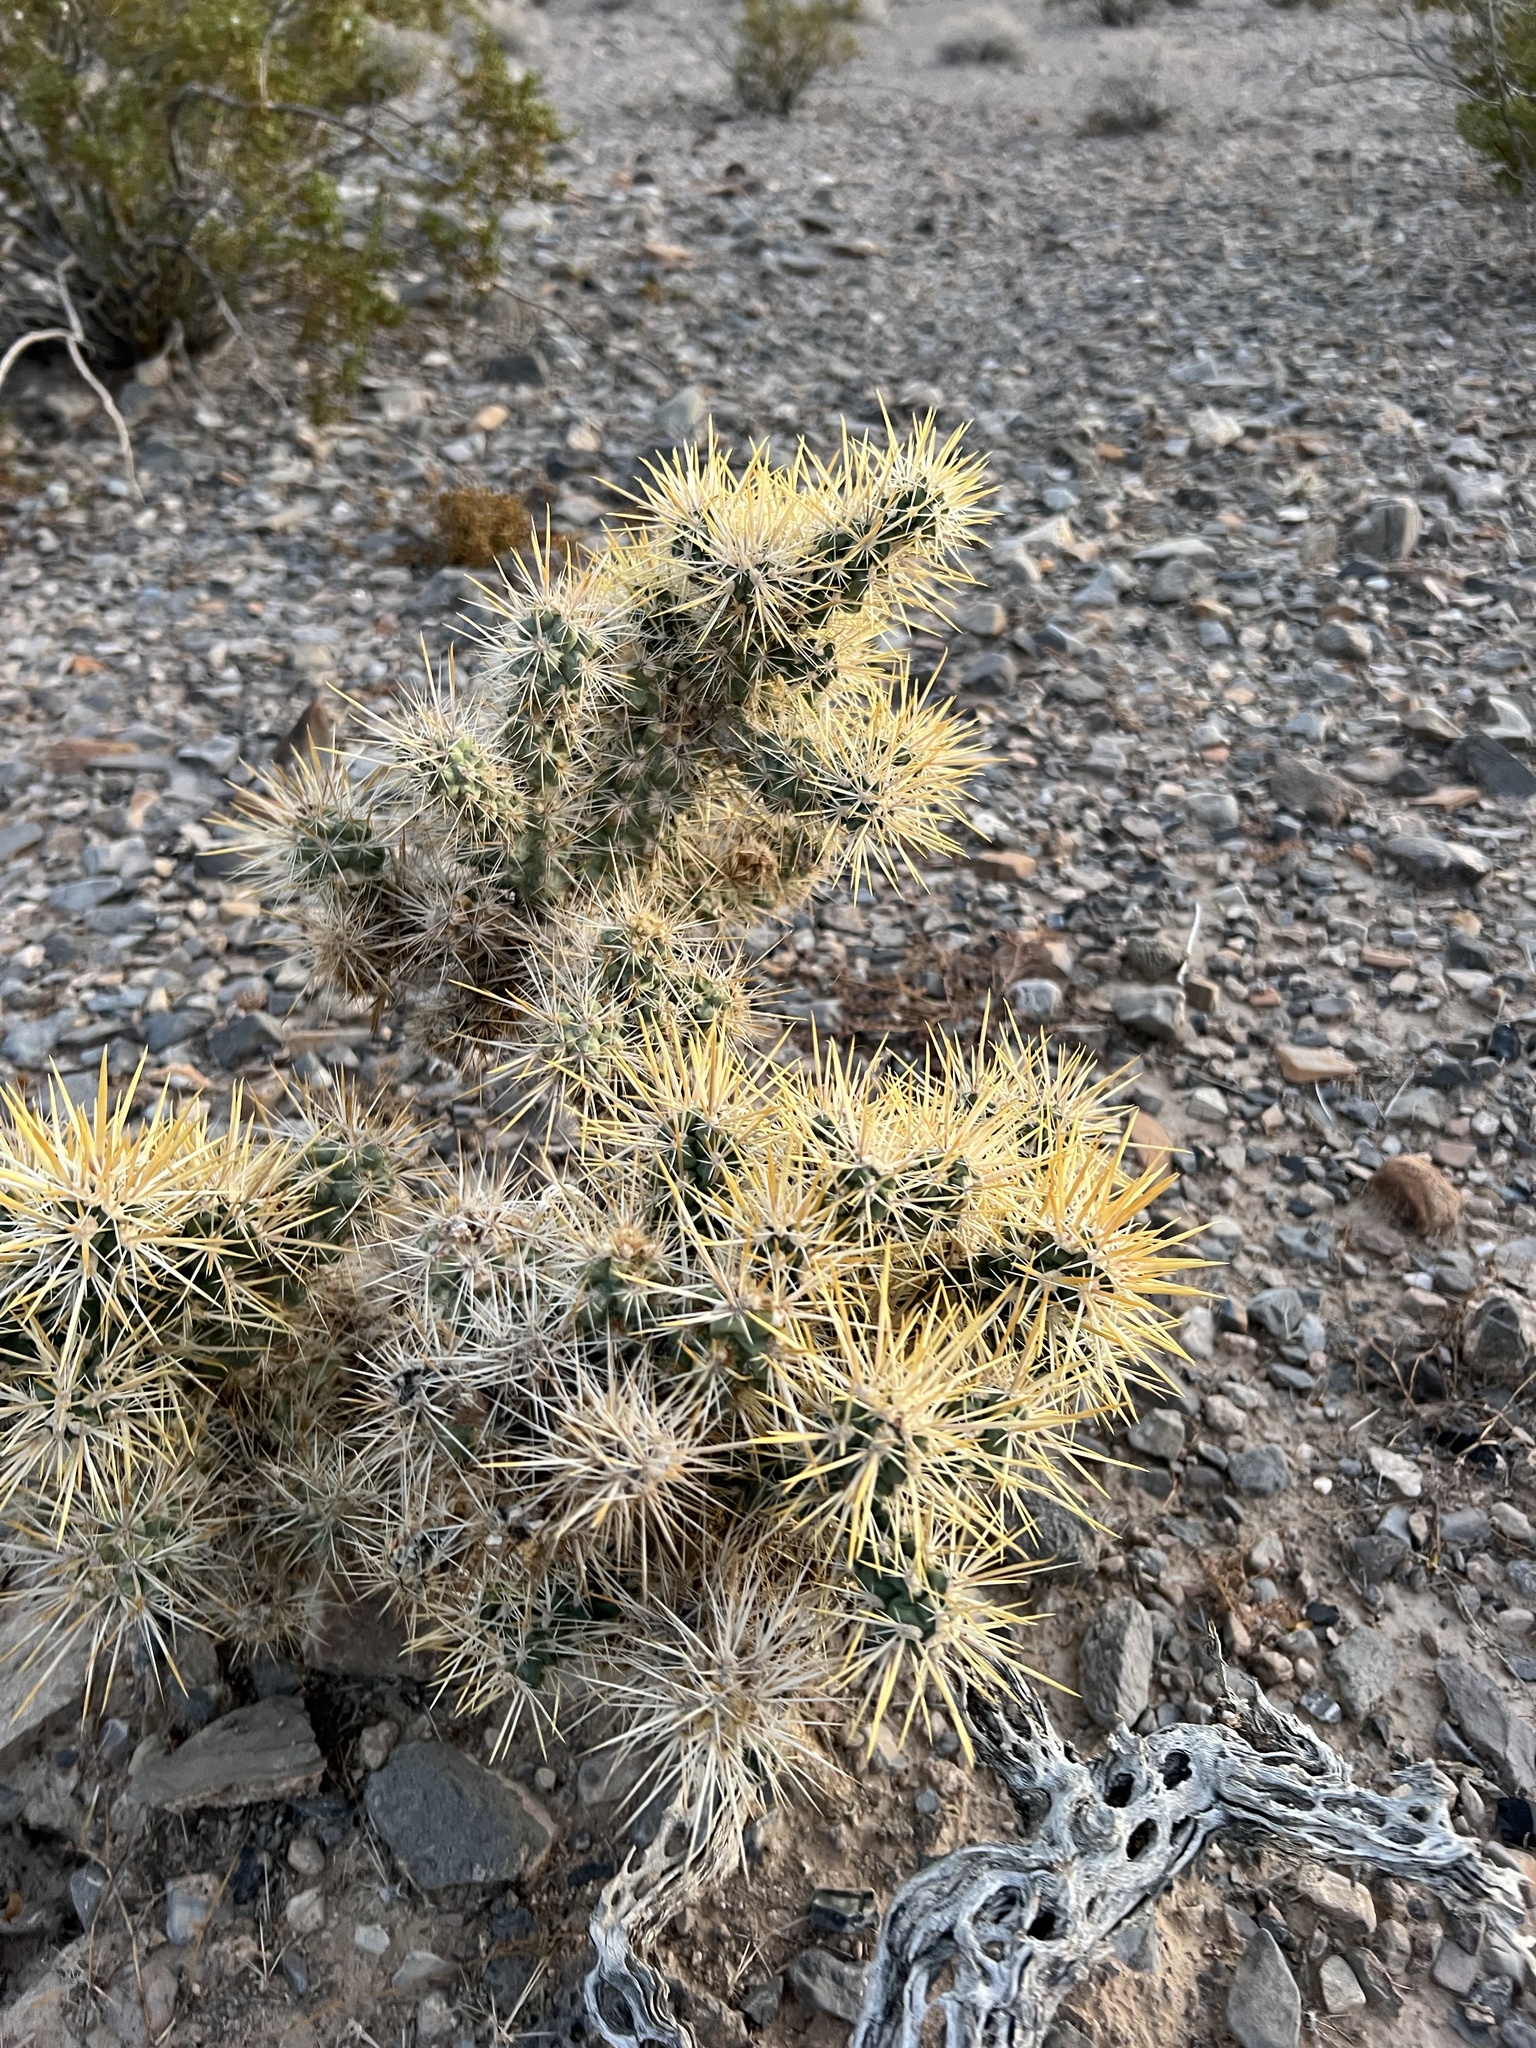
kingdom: Plantae
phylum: Tracheophyta
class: Magnoliopsida
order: Caryophyllales
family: Cactaceae
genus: Cylindropuntia
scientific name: Cylindropuntia echinocarpa
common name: Ground cholla
